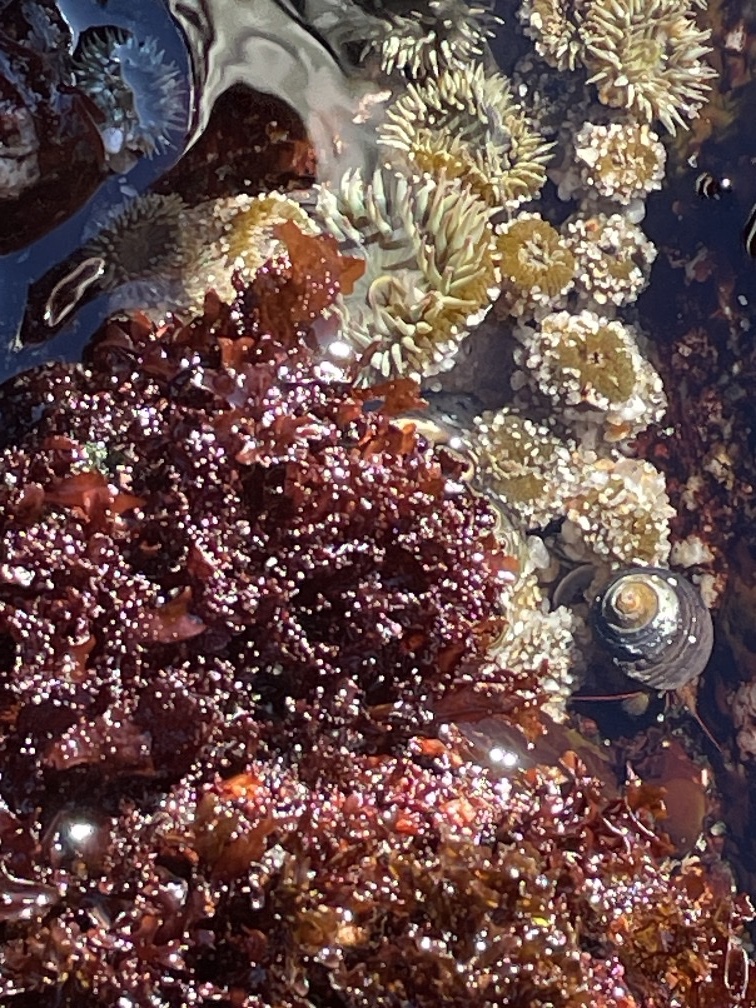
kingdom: Animalia
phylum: Cnidaria
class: Anthozoa
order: Actiniaria
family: Actiniidae
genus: Anthopleura
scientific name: Anthopleura elegantissima
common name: Clonal anemone
